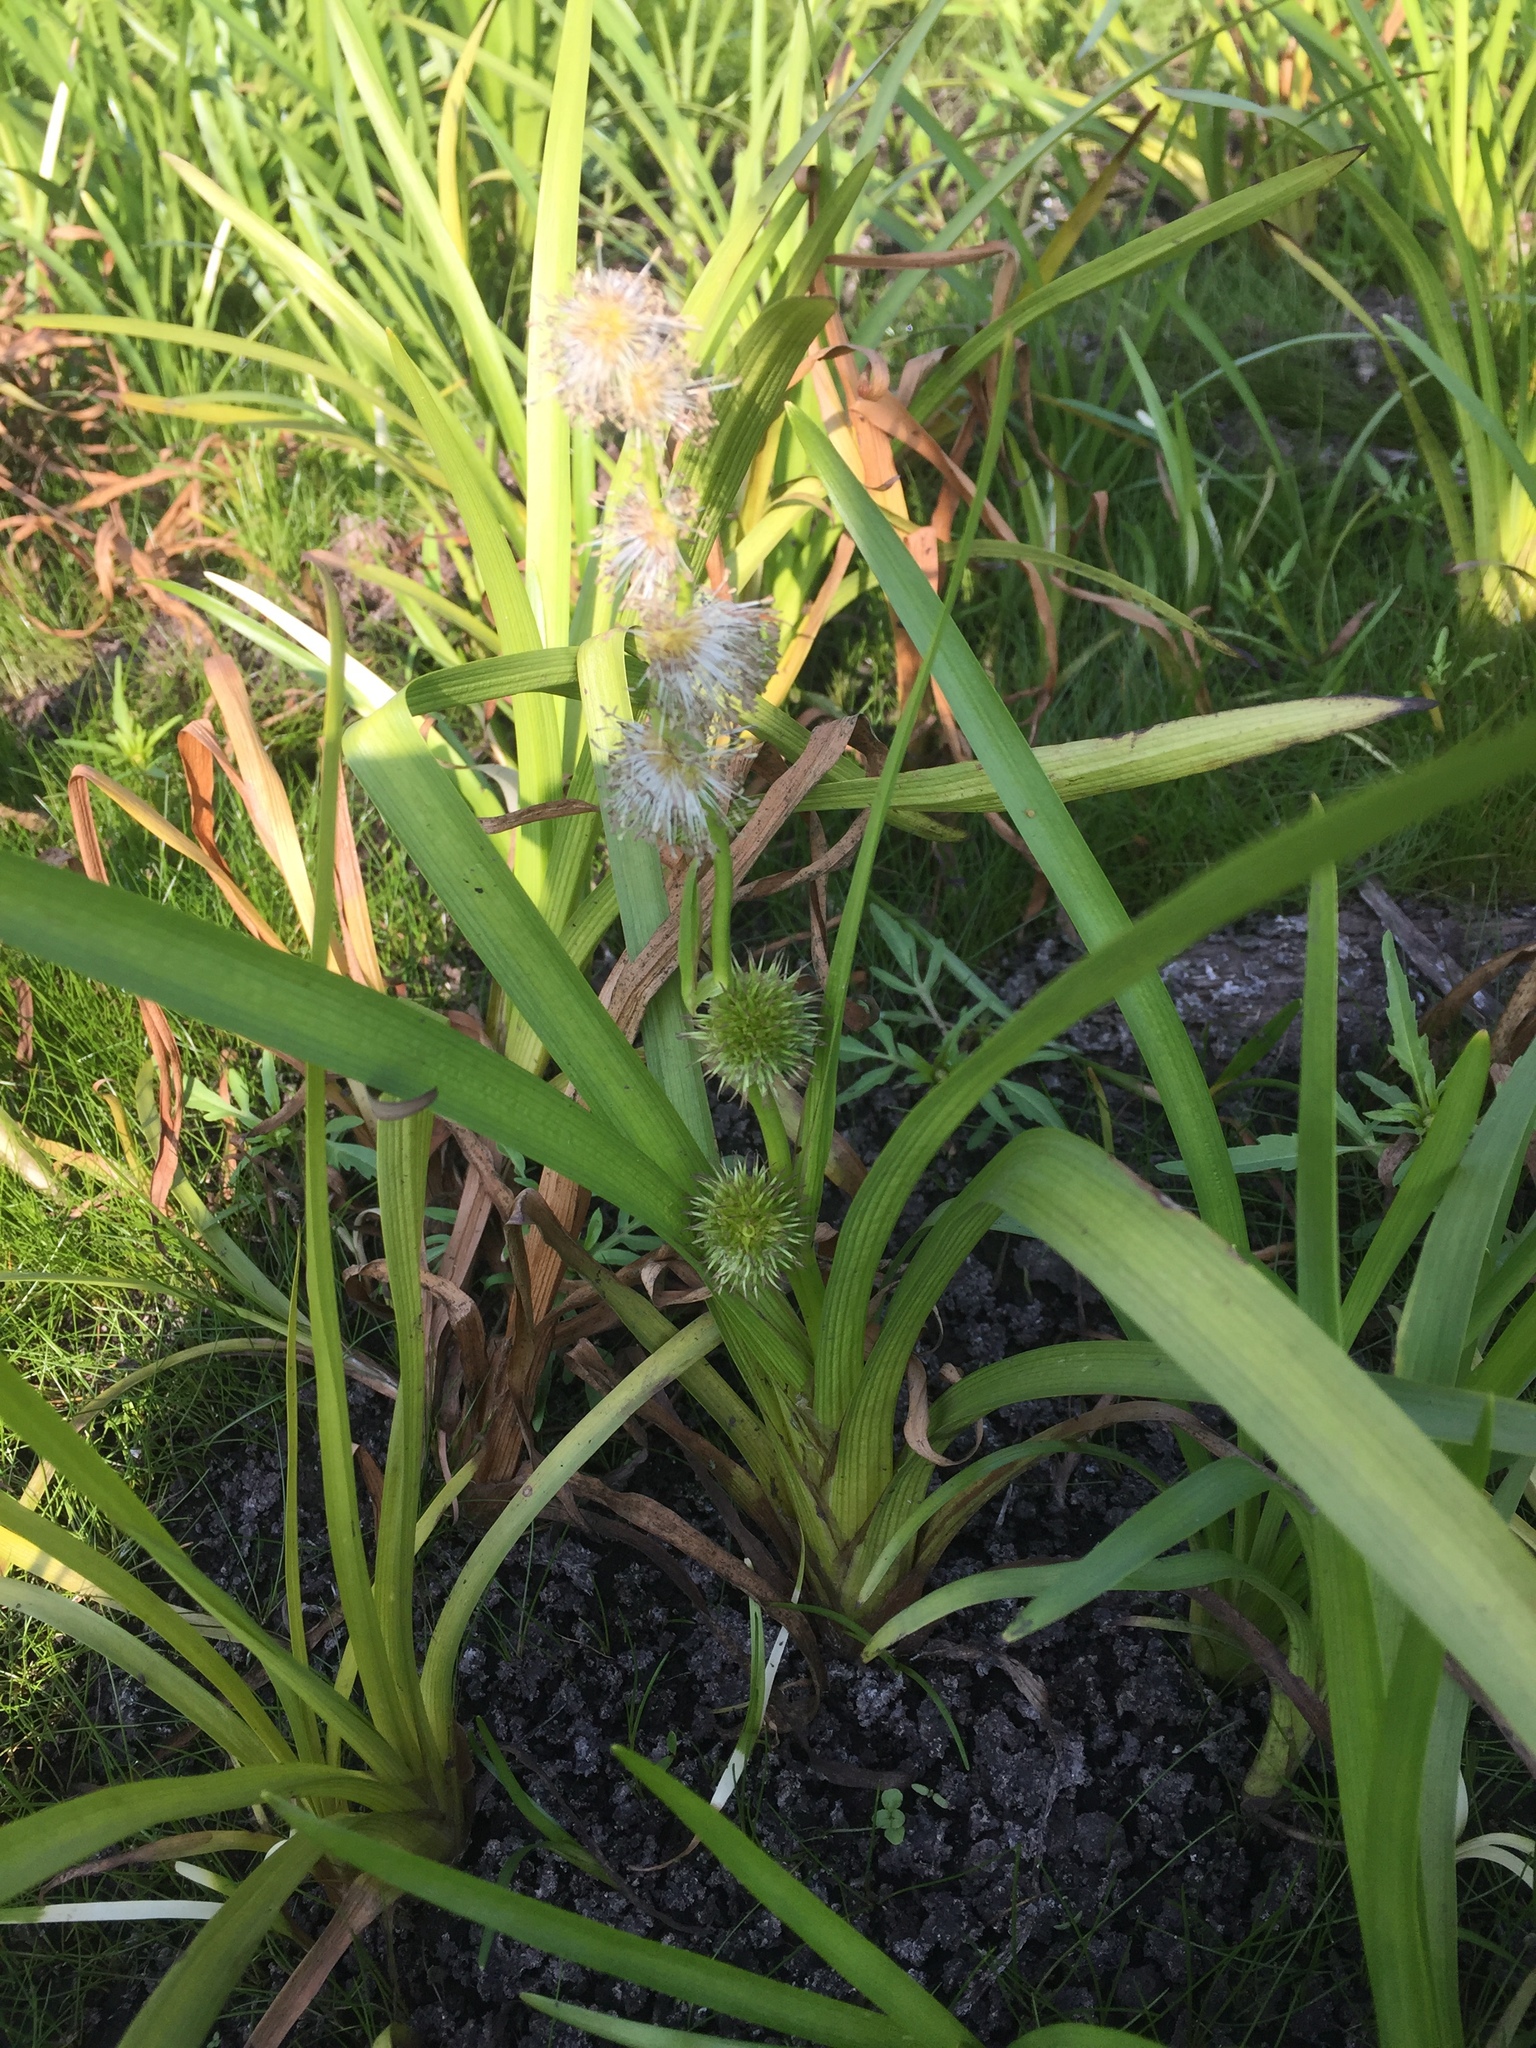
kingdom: Plantae
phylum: Tracheophyta
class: Liliopsida
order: Poales
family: Typhaceae
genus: Sparganium
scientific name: Sparganium emersum
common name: Unbranched bur-reed
